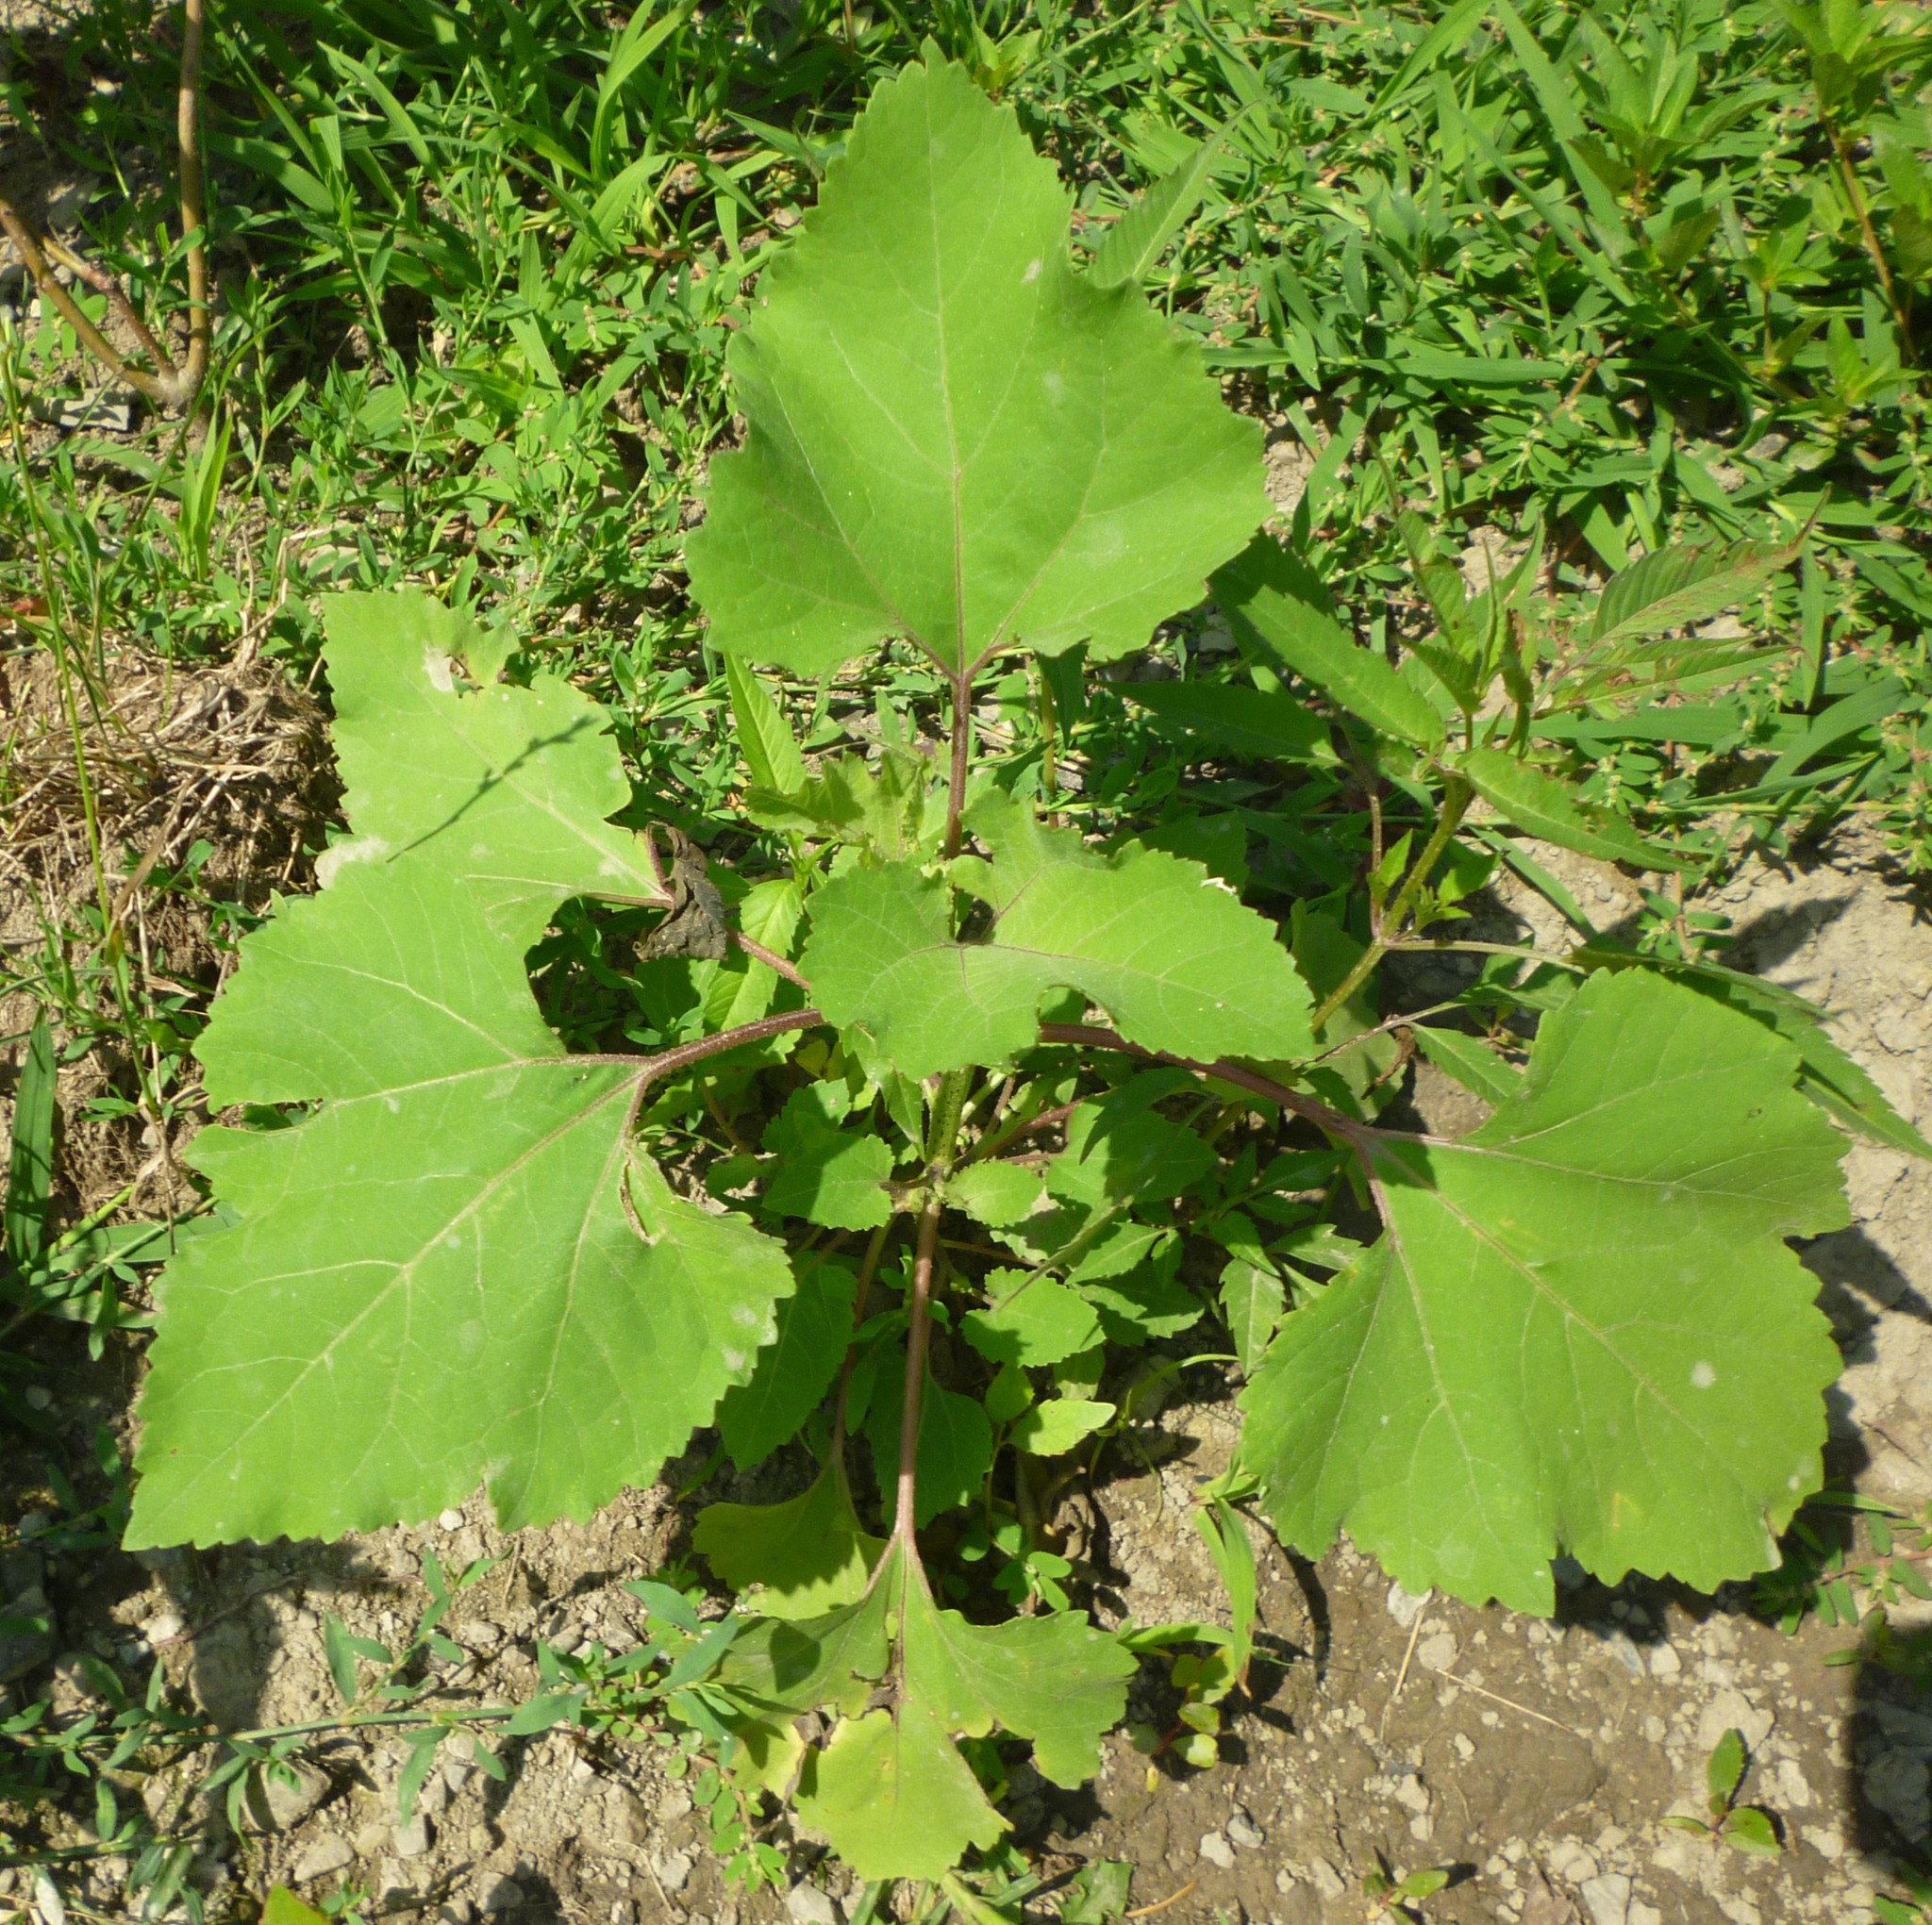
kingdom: Plantae
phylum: Tracheophyta
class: Magnoliopsida
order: Asterales
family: Asteraceae
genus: Xanthium
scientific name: Xanthium strumarium
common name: Rough cocklebur
